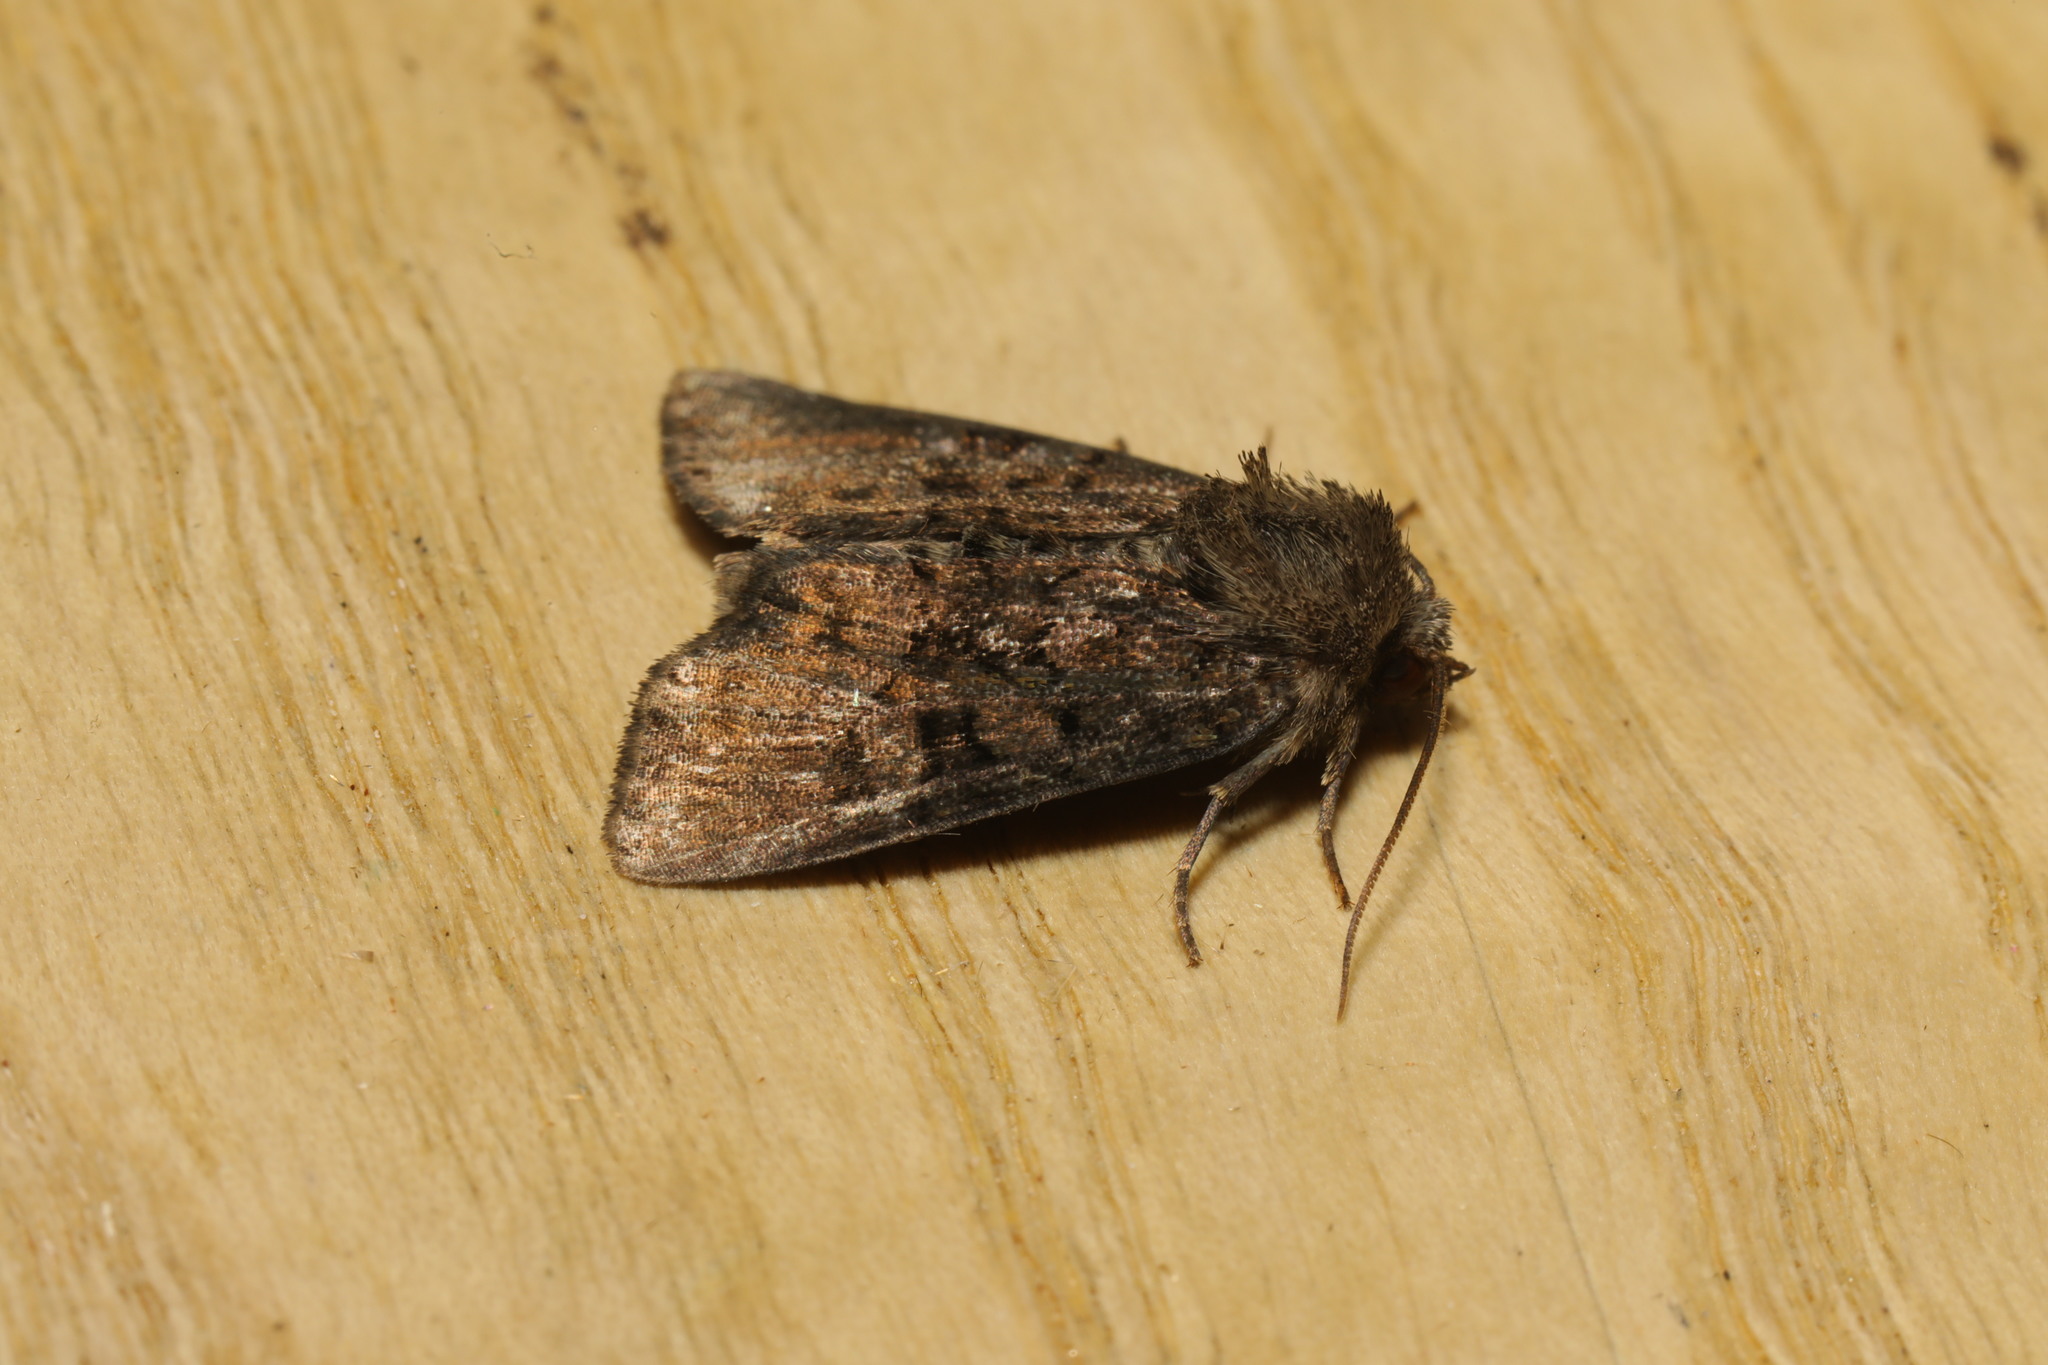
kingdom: Animalia
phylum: Arthropoda
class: Insecta
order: Lepidoptera
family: Noctuidae
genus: Oligia
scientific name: Oligia
